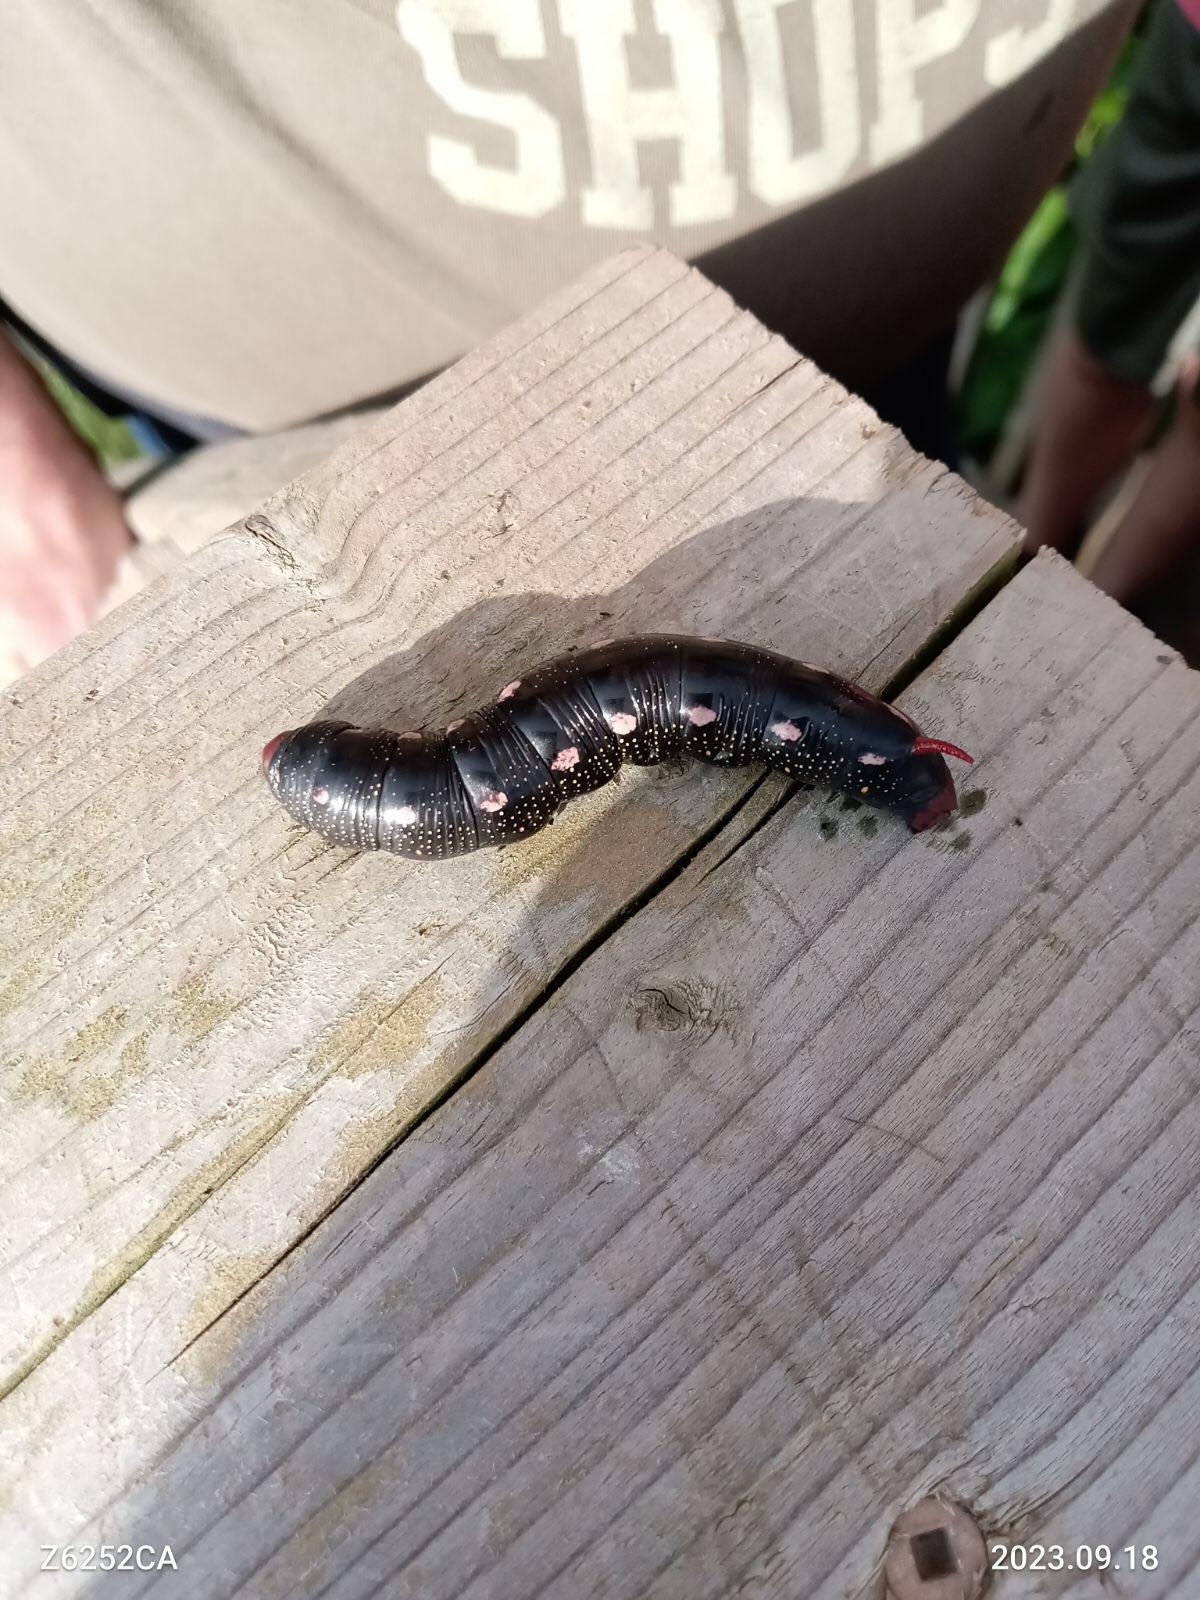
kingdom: Animalia
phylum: Arthropoda
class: Insecta
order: Lepidoptera
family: Sphingidae
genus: Hyles
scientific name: Hyles gallii
